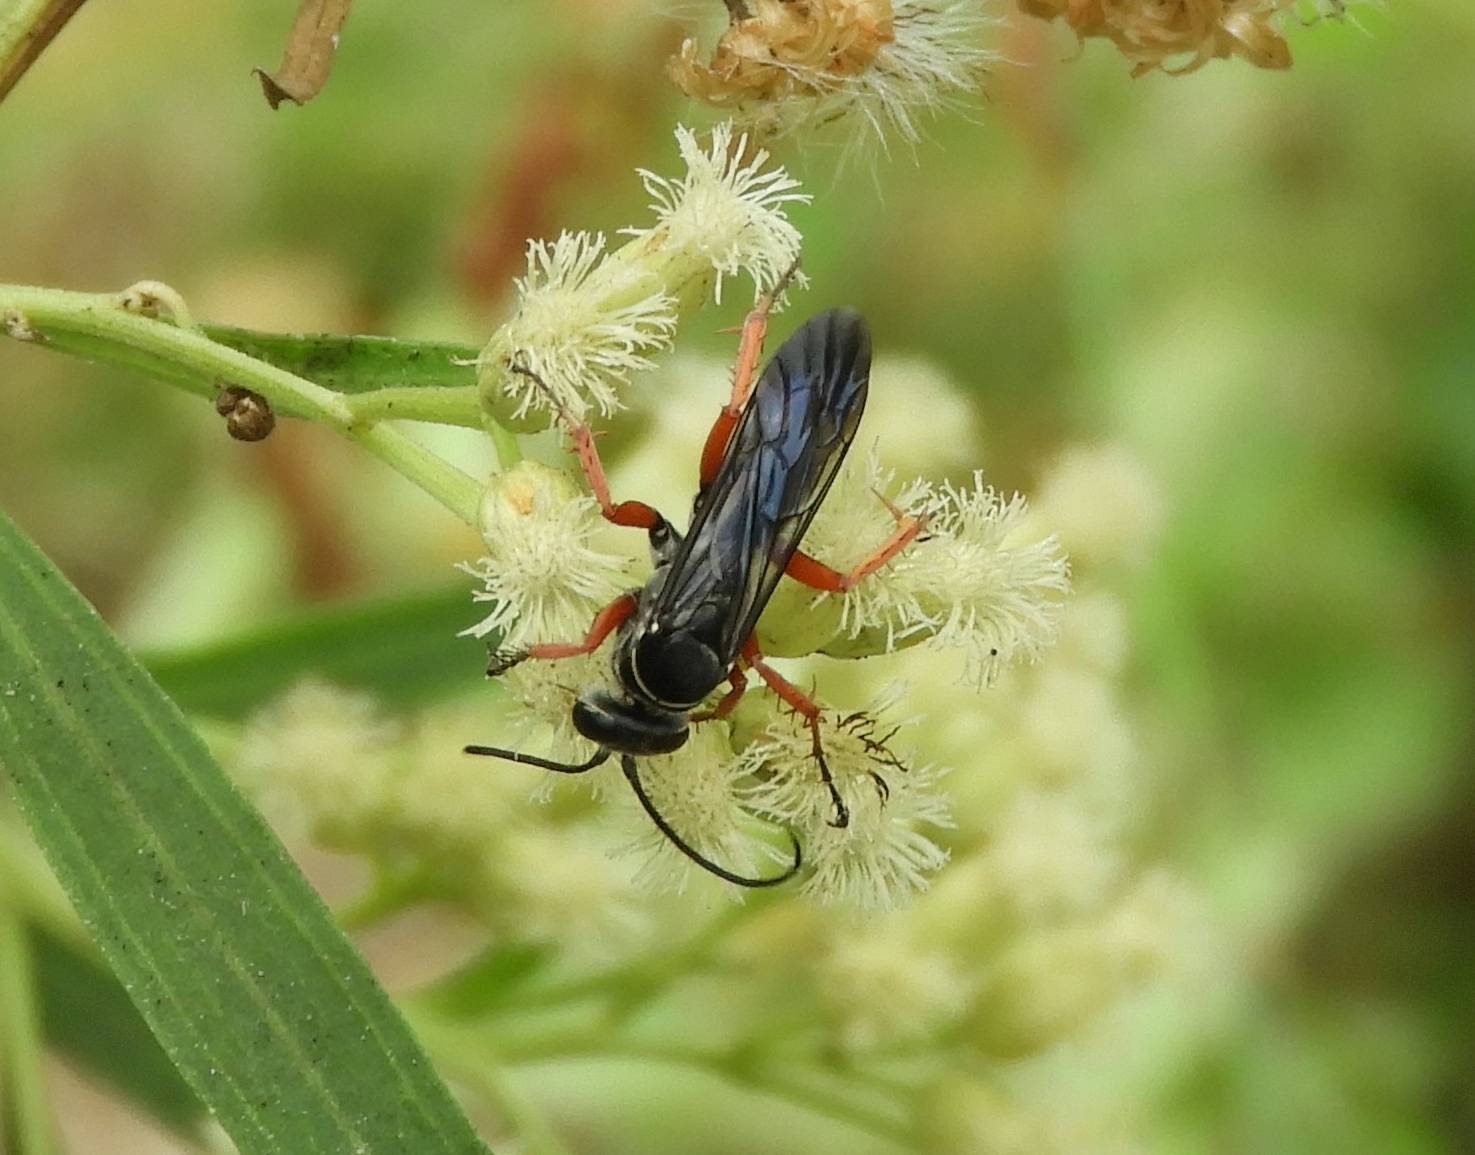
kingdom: Animalia
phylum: Arthropoda
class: Insecta
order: Hymenoptera
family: Pompilidae
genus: Episyron
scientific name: Episyron conterminus
